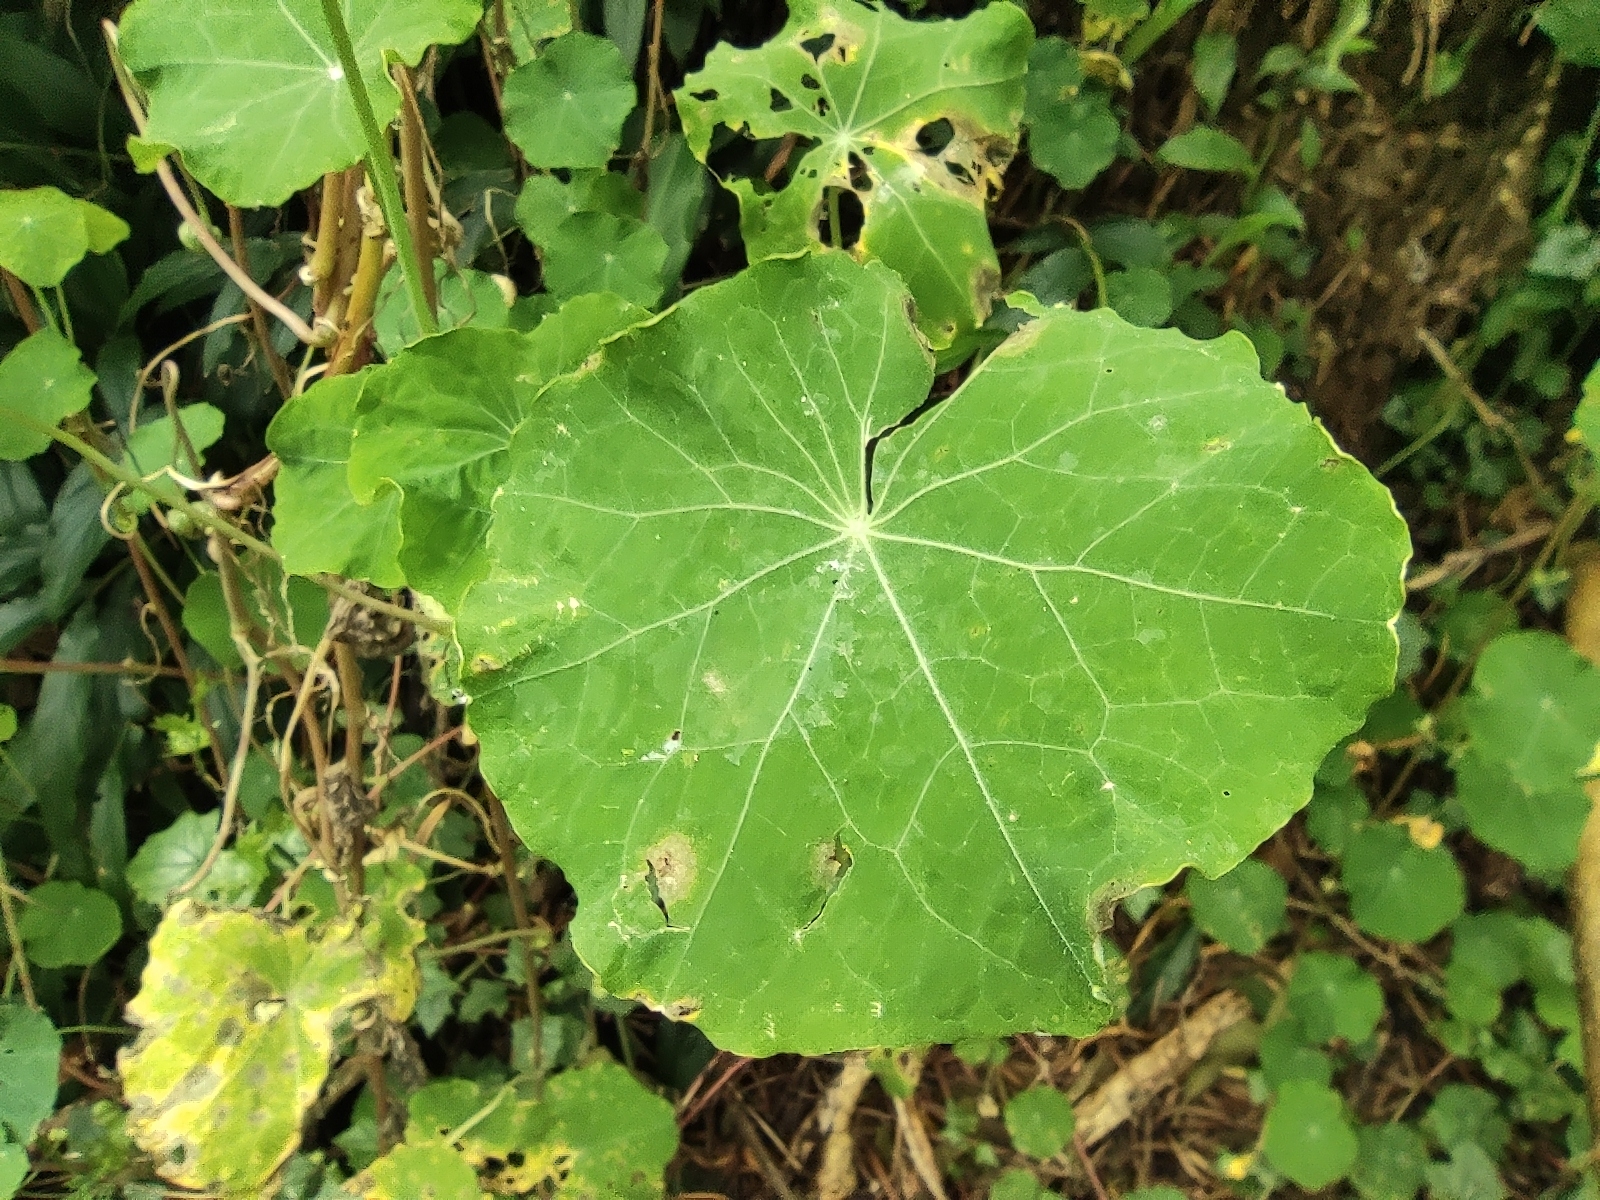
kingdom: Plantae
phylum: Tracheophyta
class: Magnoliopsida
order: Brassicales
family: Tropaeolaceae
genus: Tropaeolum
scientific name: Tropaeolum majus
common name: Nasturtium
